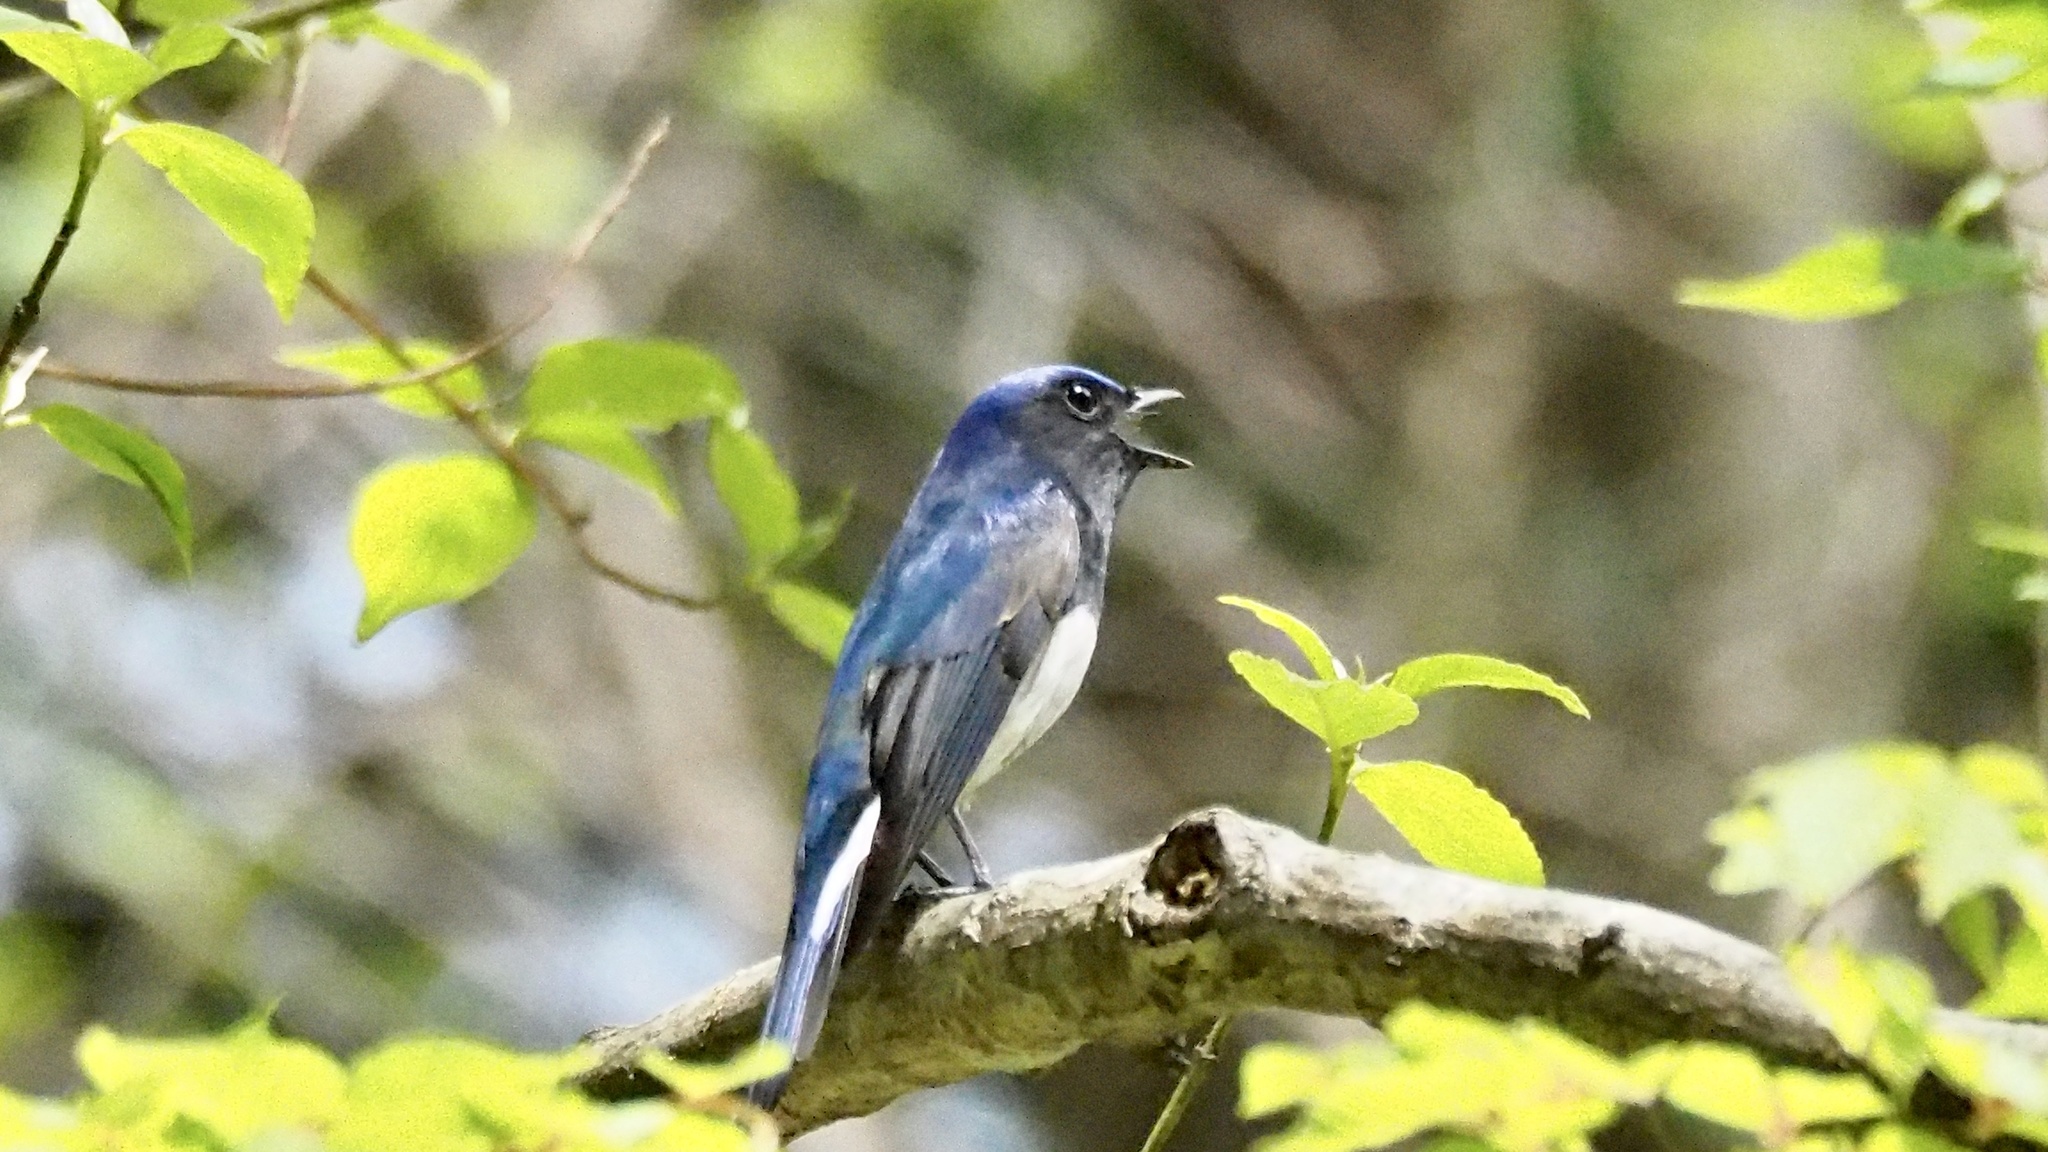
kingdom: Animalia
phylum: Chordata
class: Aves
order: Passeriformes
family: Muscicapidae
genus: Cyanoptila
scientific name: Cyanoptila cyanomelana
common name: Blue-and-white flycatcher
